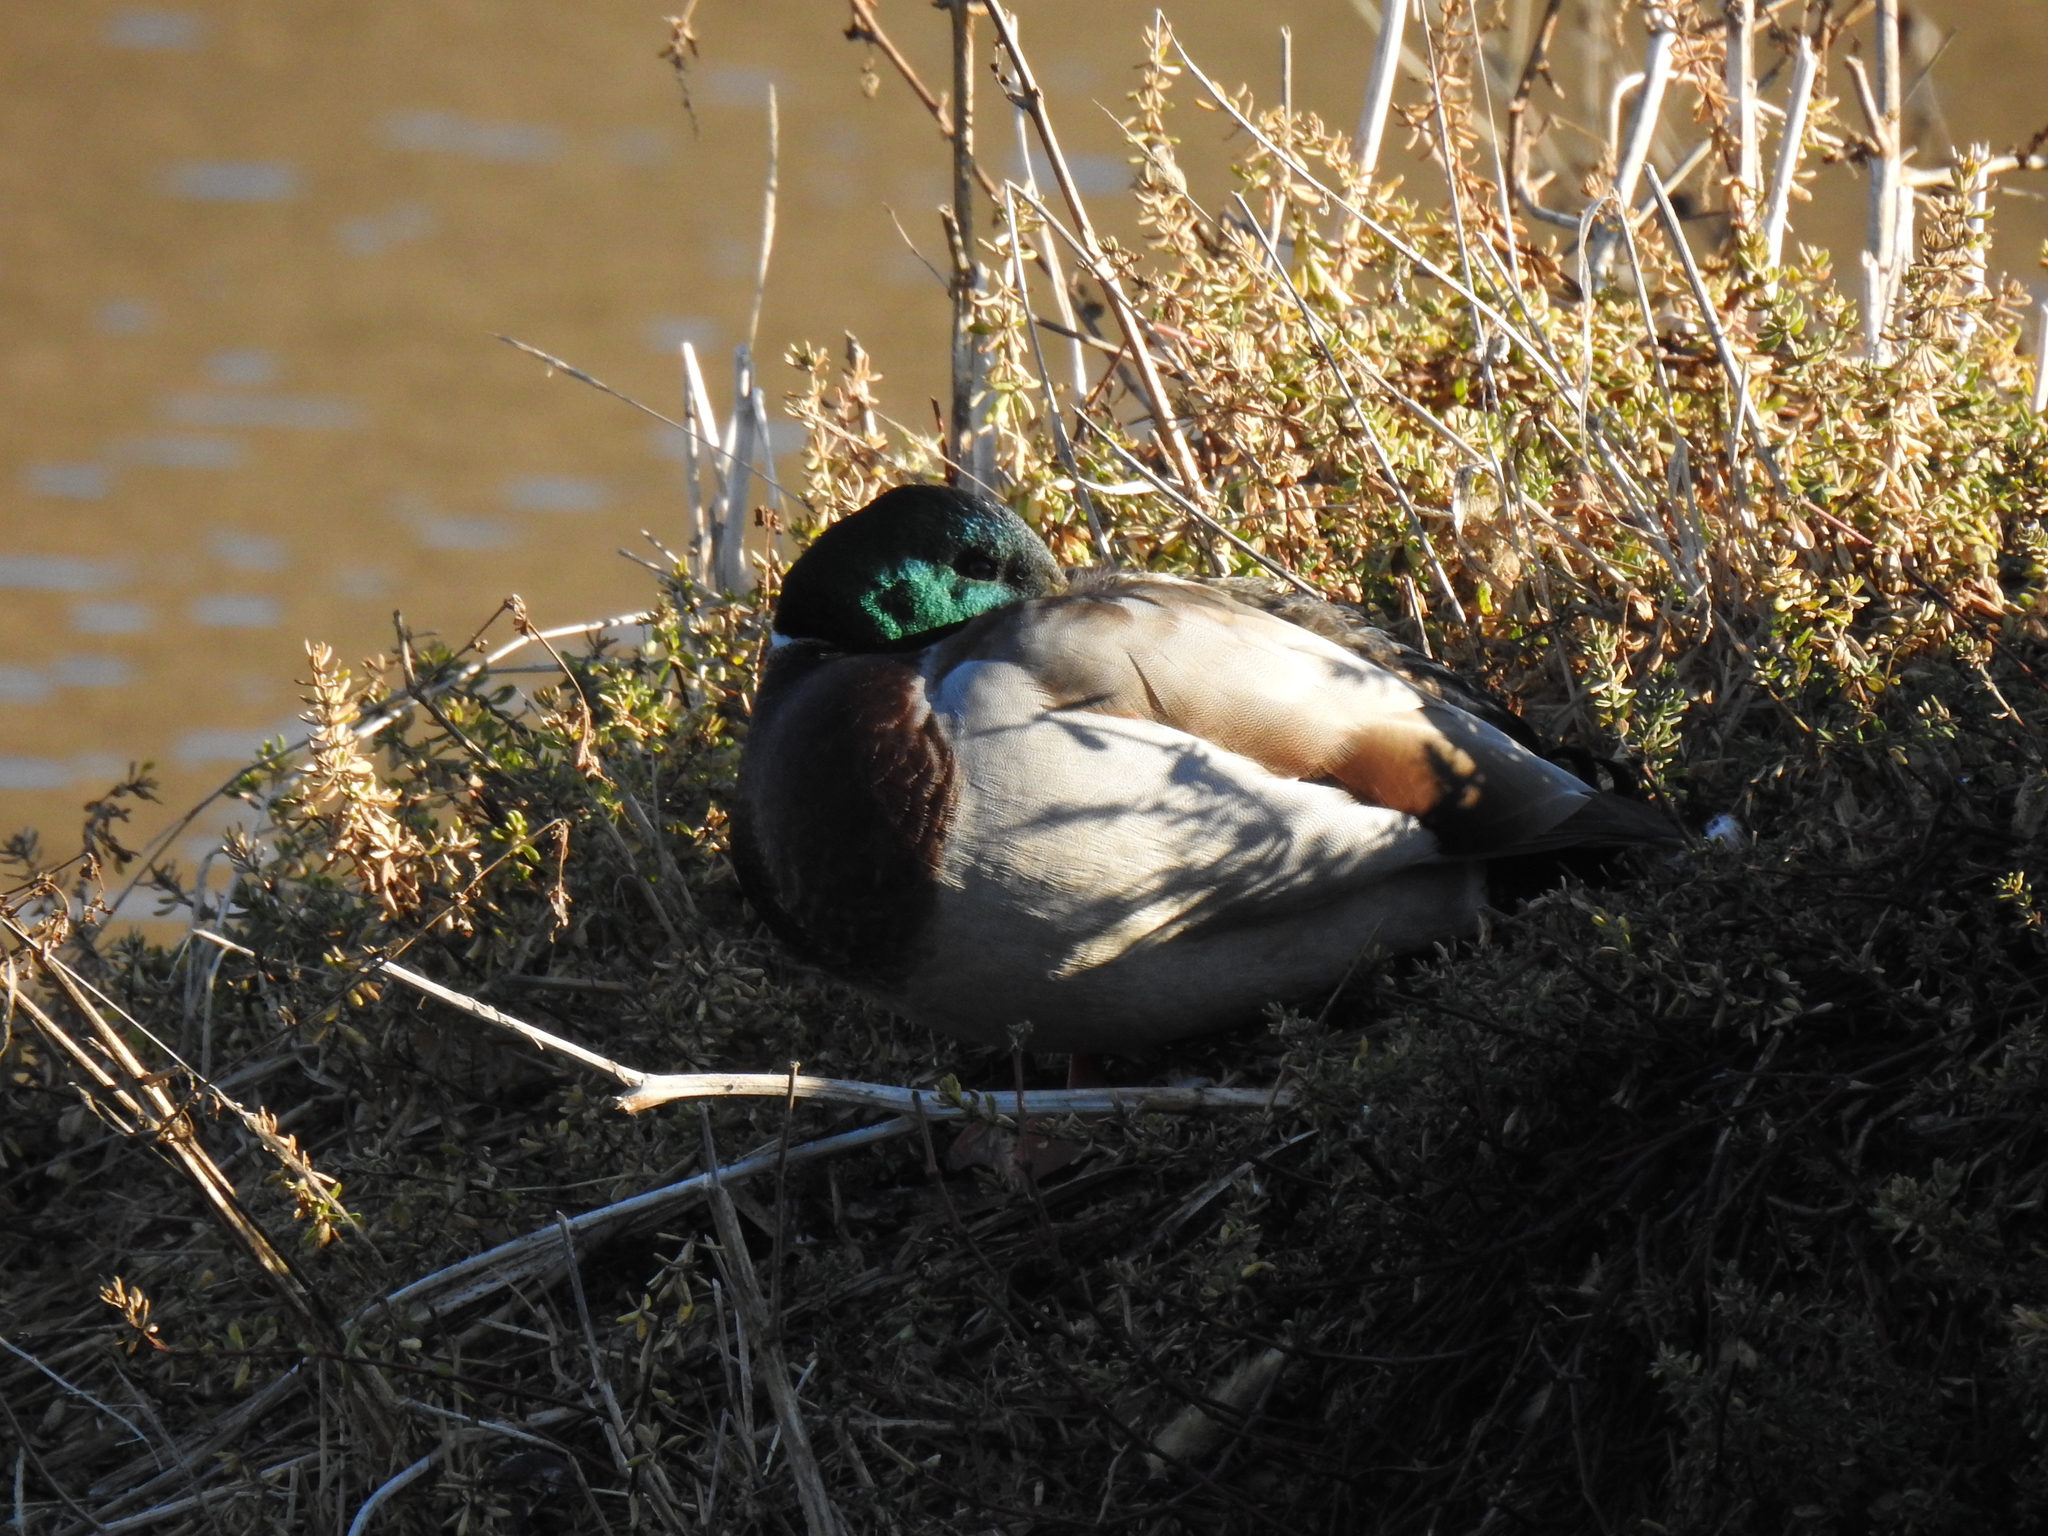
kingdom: Animalia
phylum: Chordata
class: Aves
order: Anseriformes
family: Anatidae
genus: Anas
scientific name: Anas platyrhynchos
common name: Mallard
